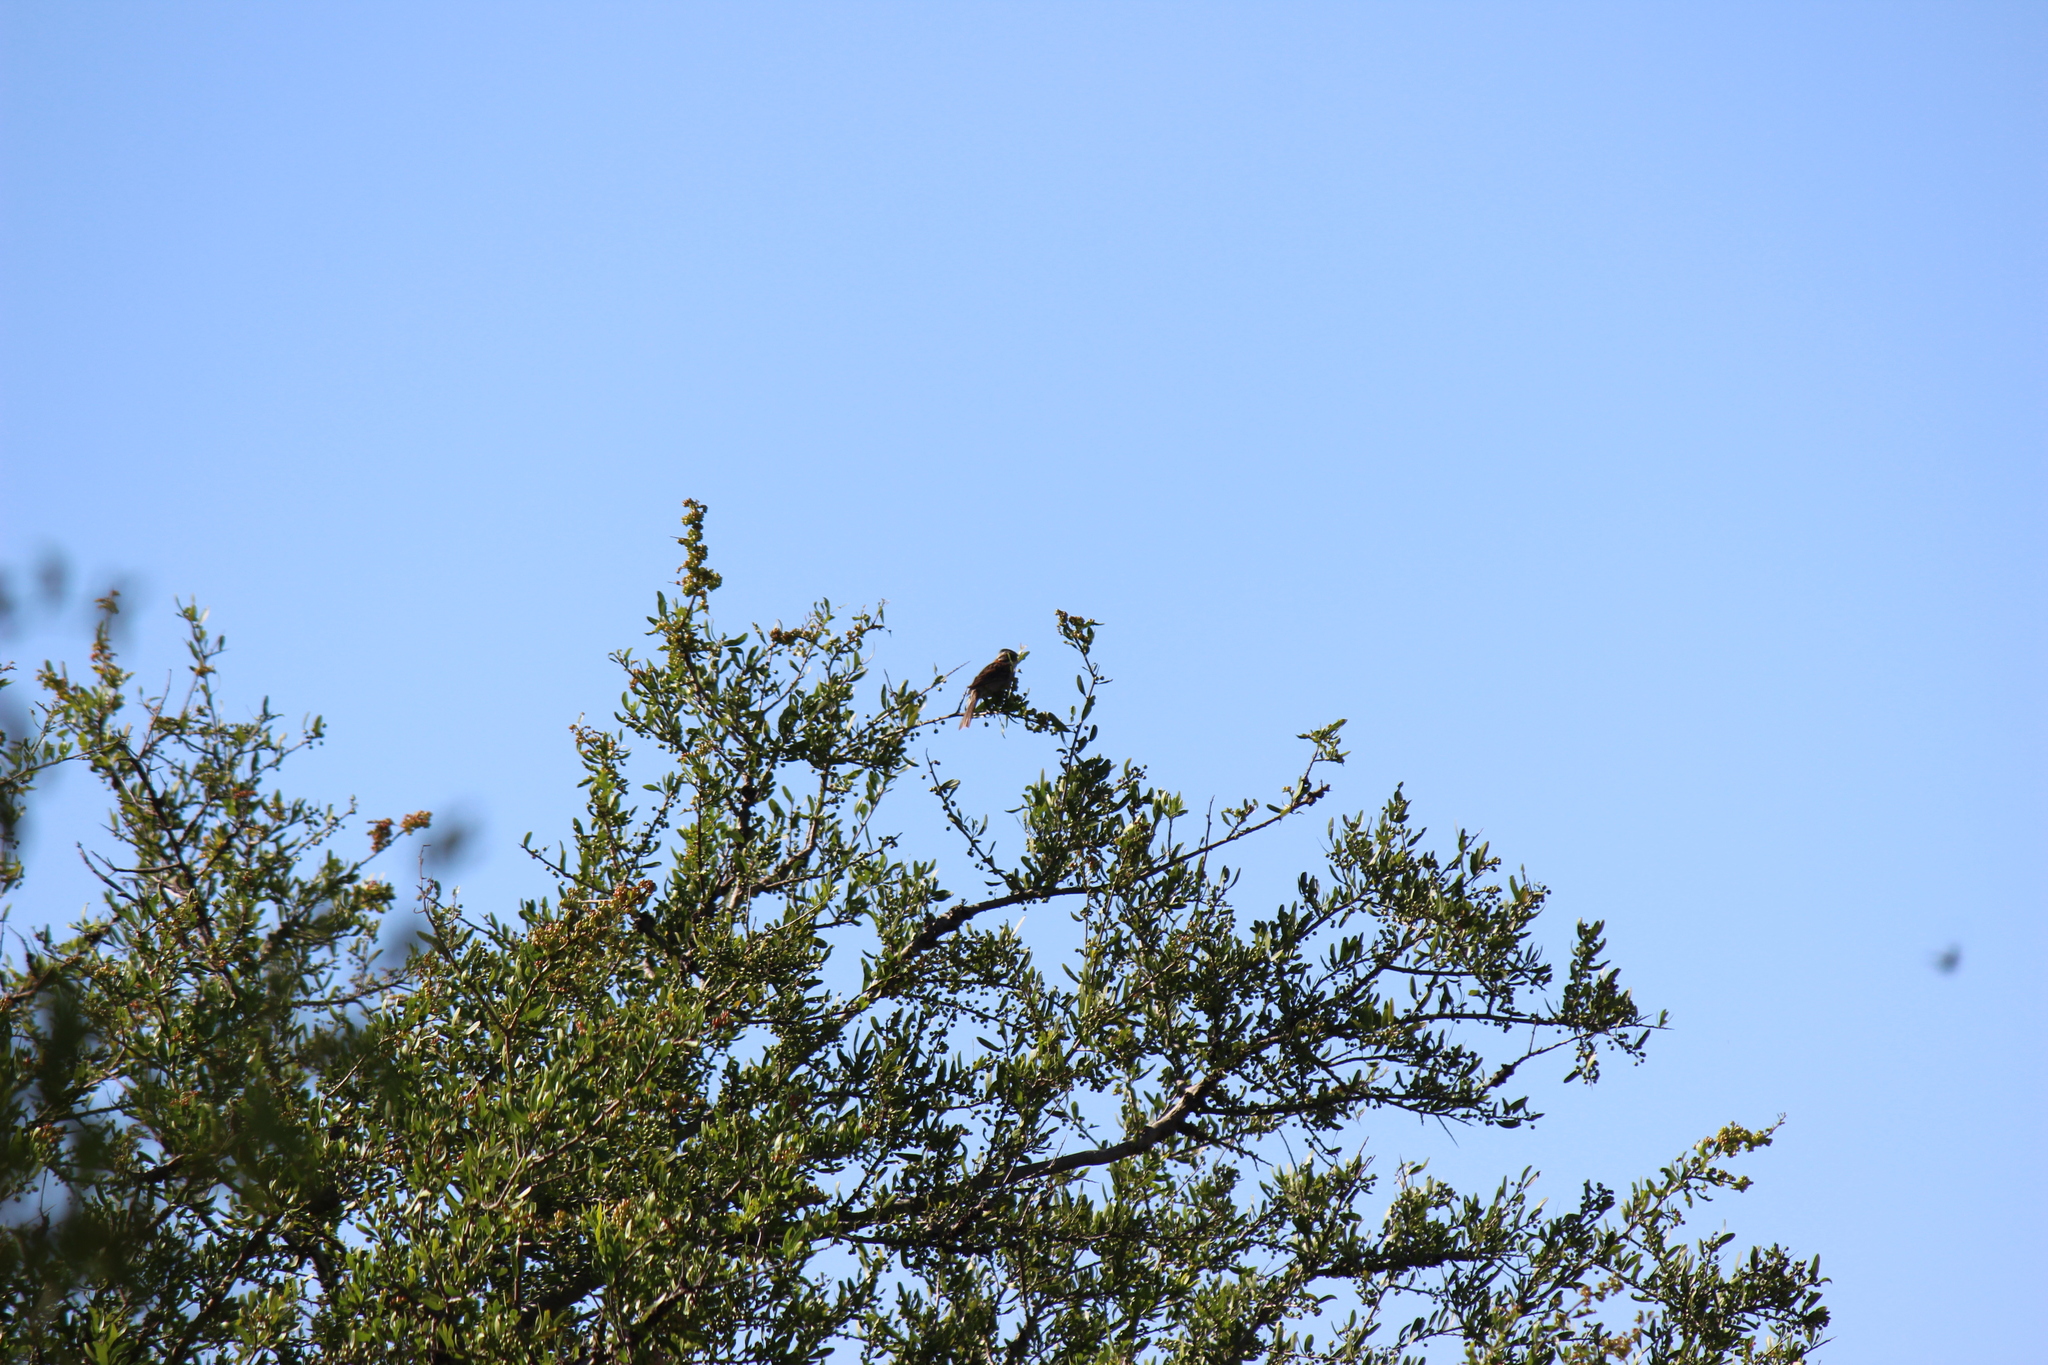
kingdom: Animalia
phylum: Chordata
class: Aves
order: Falconiformes
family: Falconidae
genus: Falco
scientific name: Falco sparverius
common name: American kestrel
